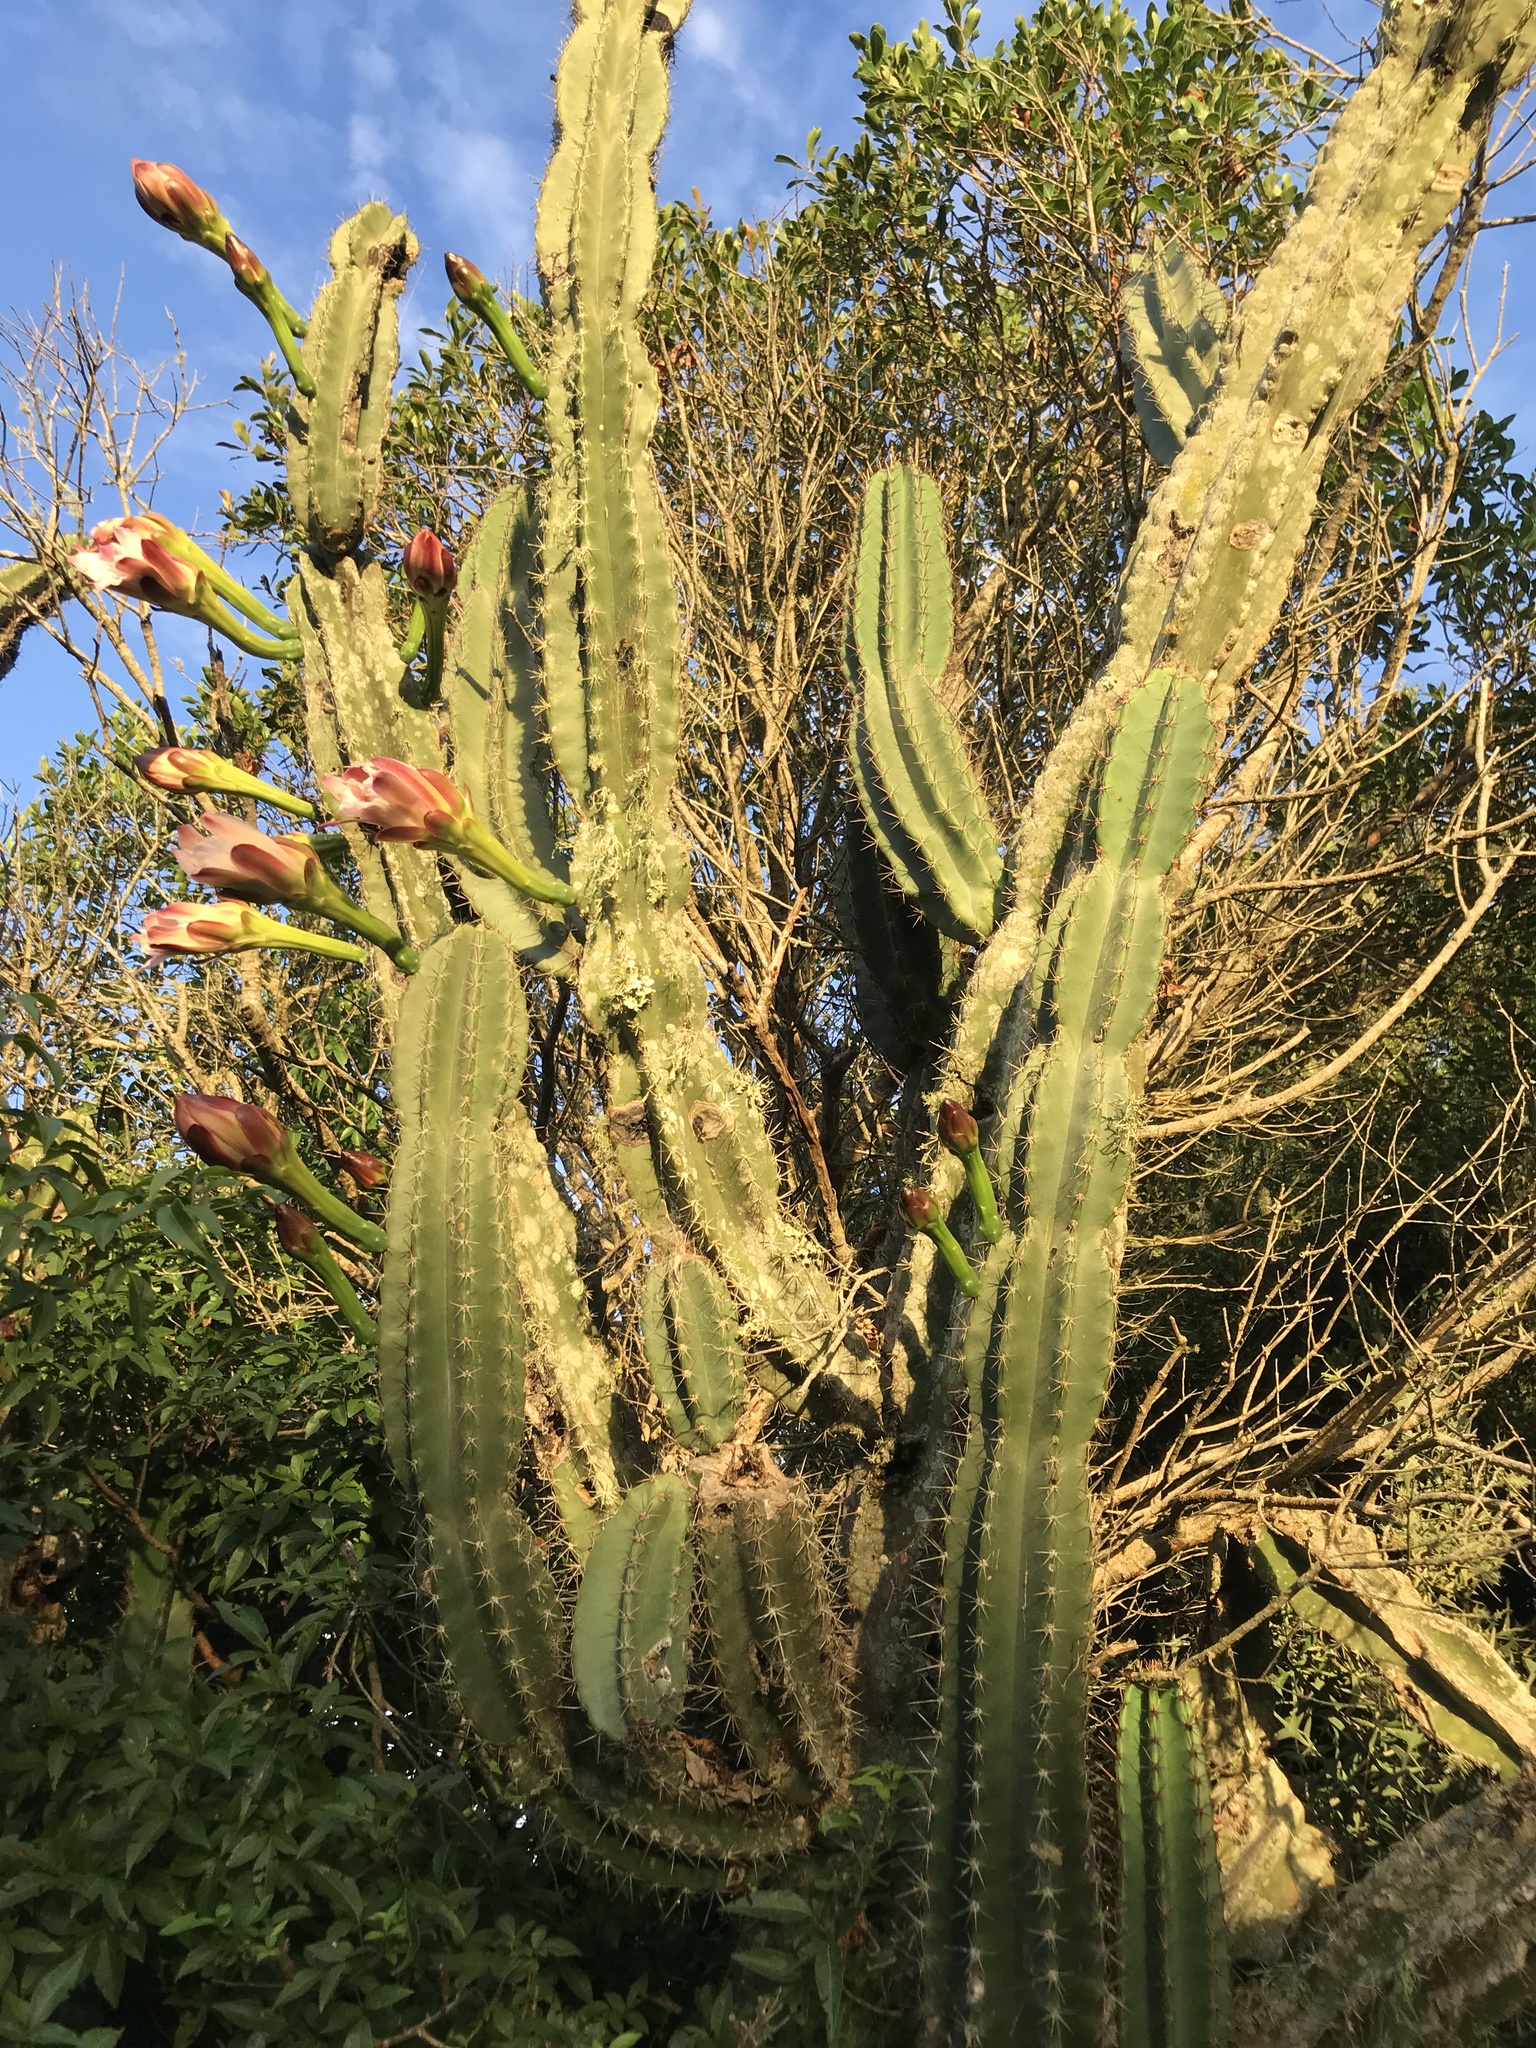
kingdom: Plantae
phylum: Tracheophyta
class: Magnoliopsida
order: Caryophyllales
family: Cactaceae
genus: Cereus
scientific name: Cereus hildmannianus
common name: Hedge cactus
